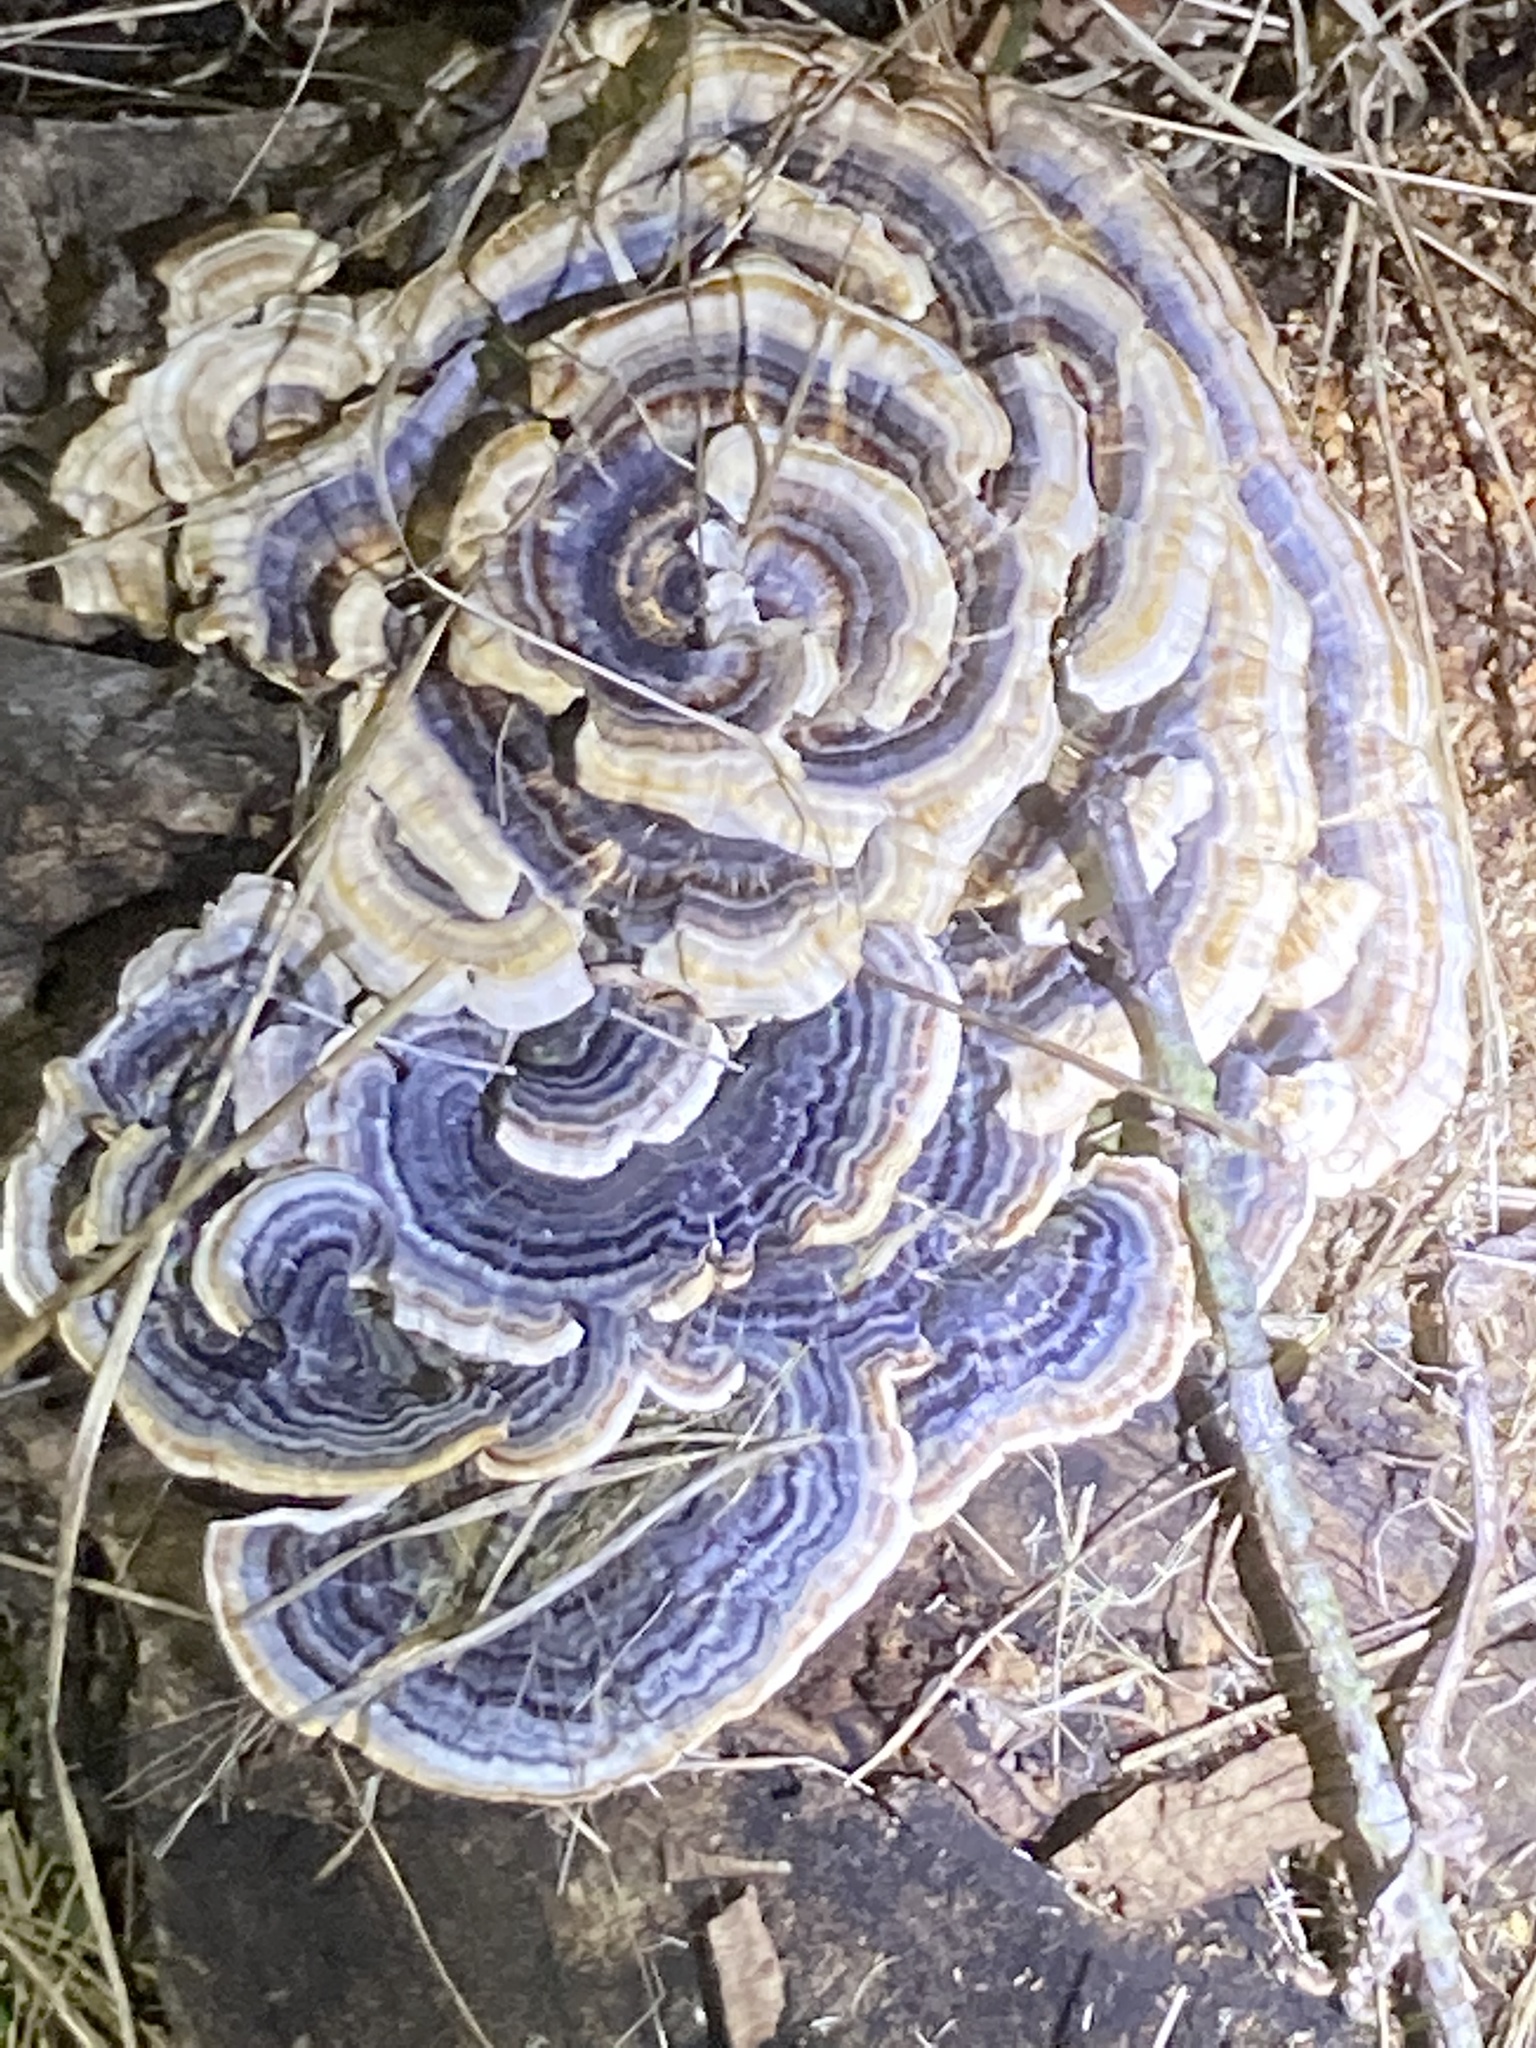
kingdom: Fungi
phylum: Basidiomycota
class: Agaricomycetes
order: Polyporales
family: Polyporaceae
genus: Trametes
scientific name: Trametes versicolor
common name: Turkeytail
